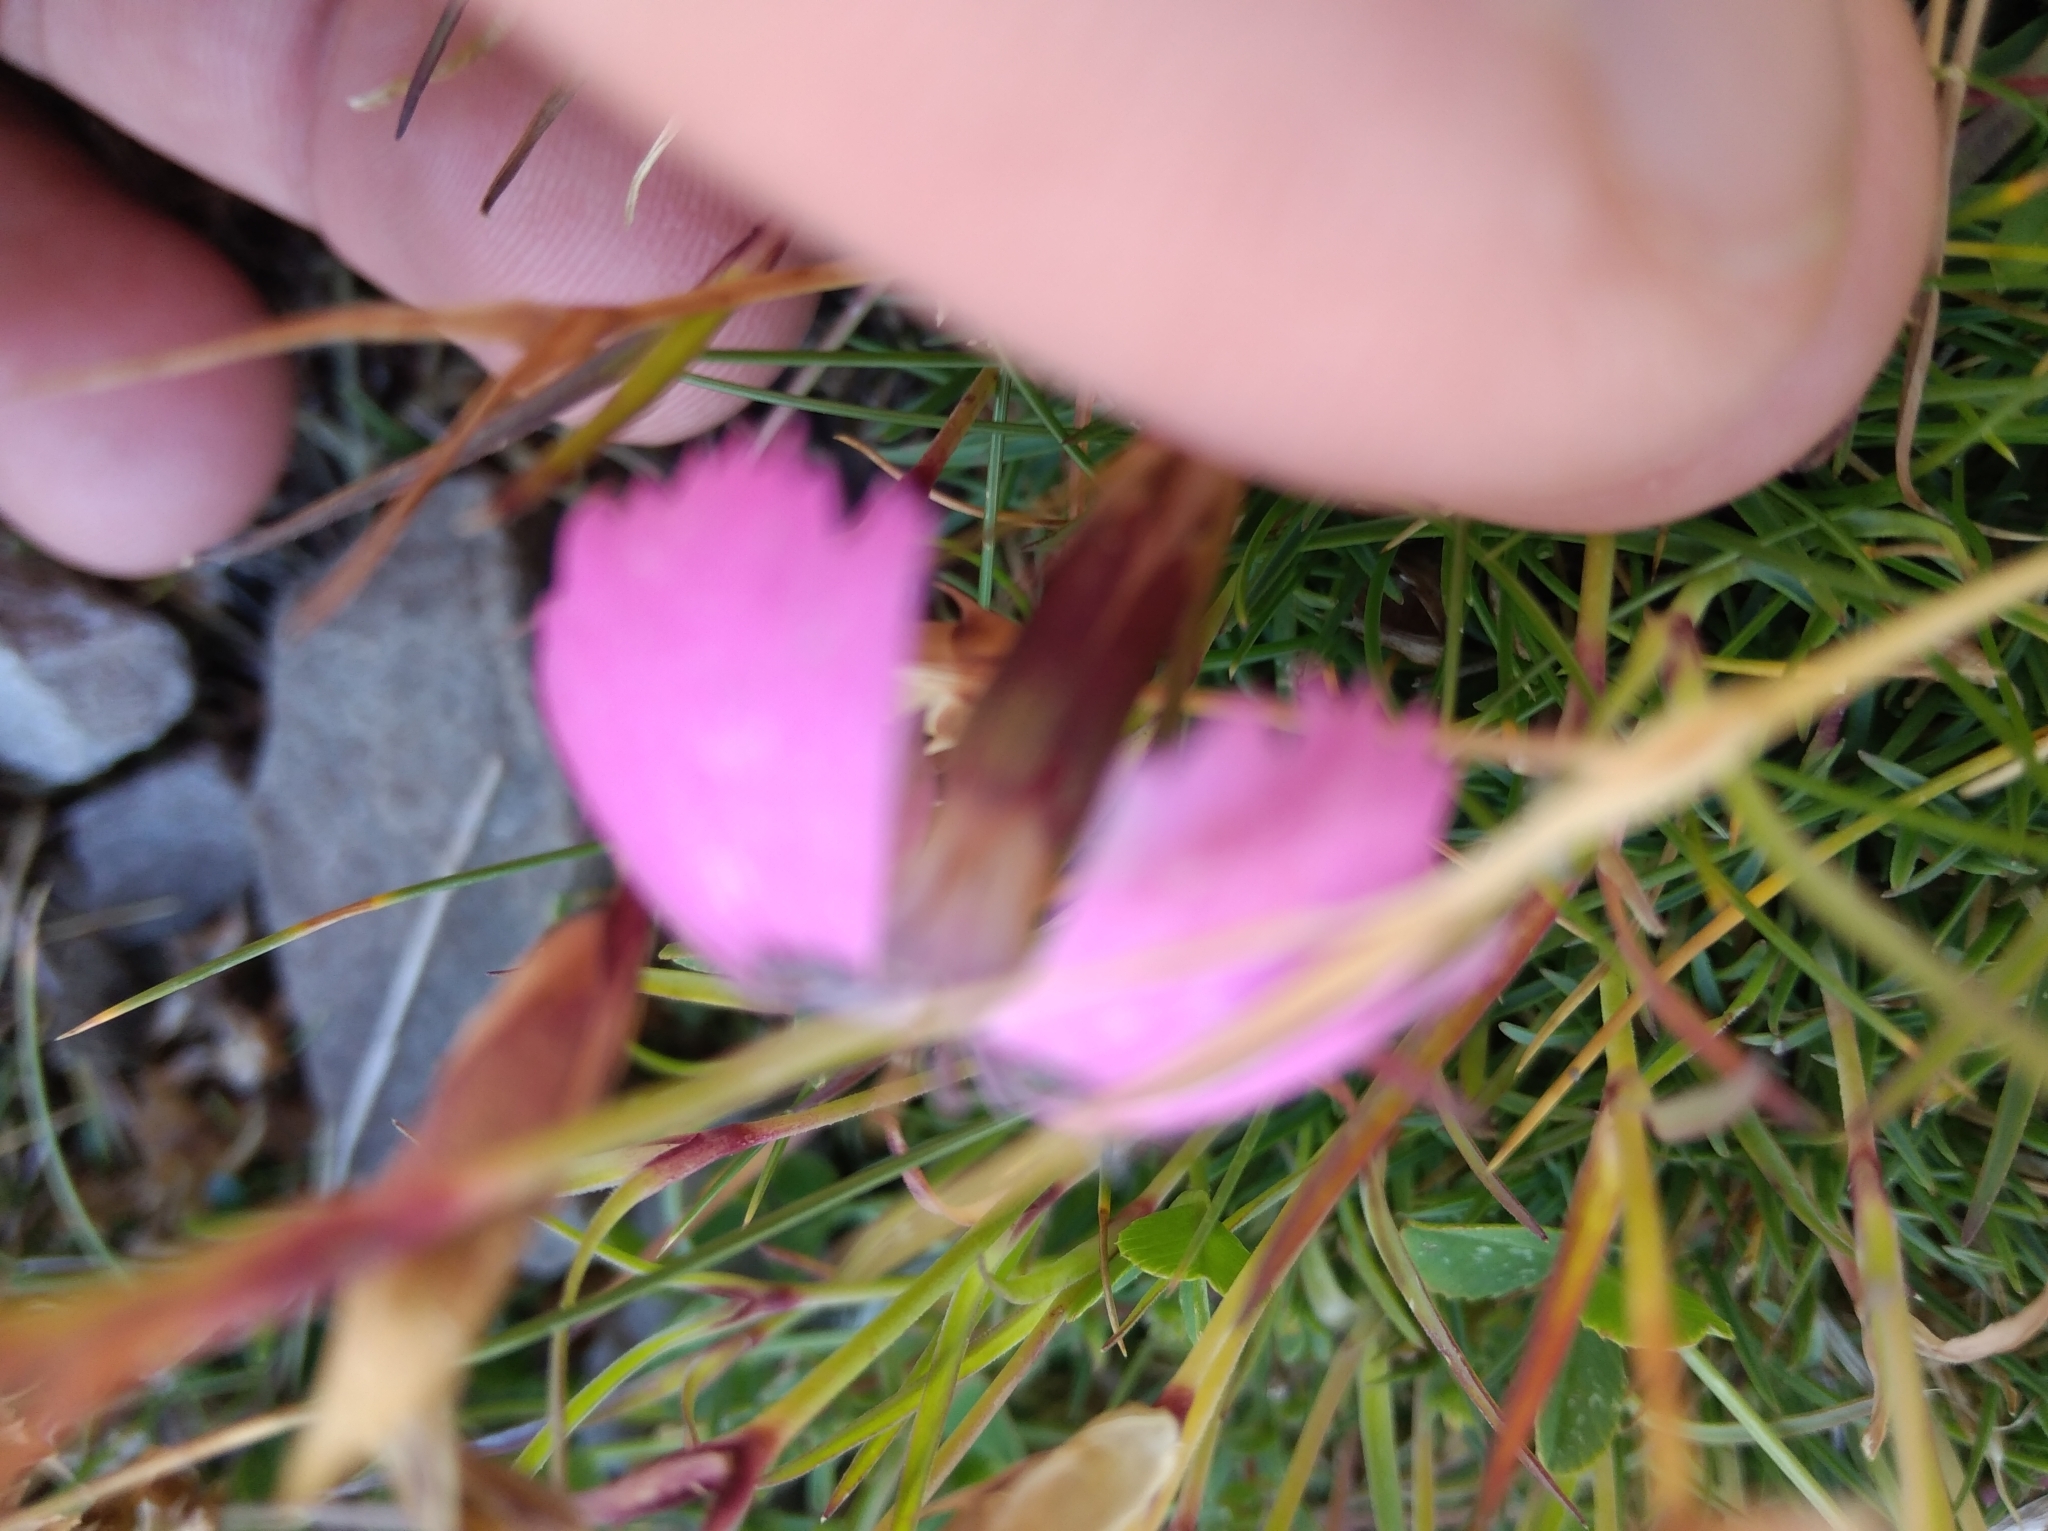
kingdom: Plantae
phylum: Tracheophyta
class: Magnoliopsida
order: Caryophyllales
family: Caryophyllaceae
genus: Dianthus
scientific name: Dianthus pavonius
